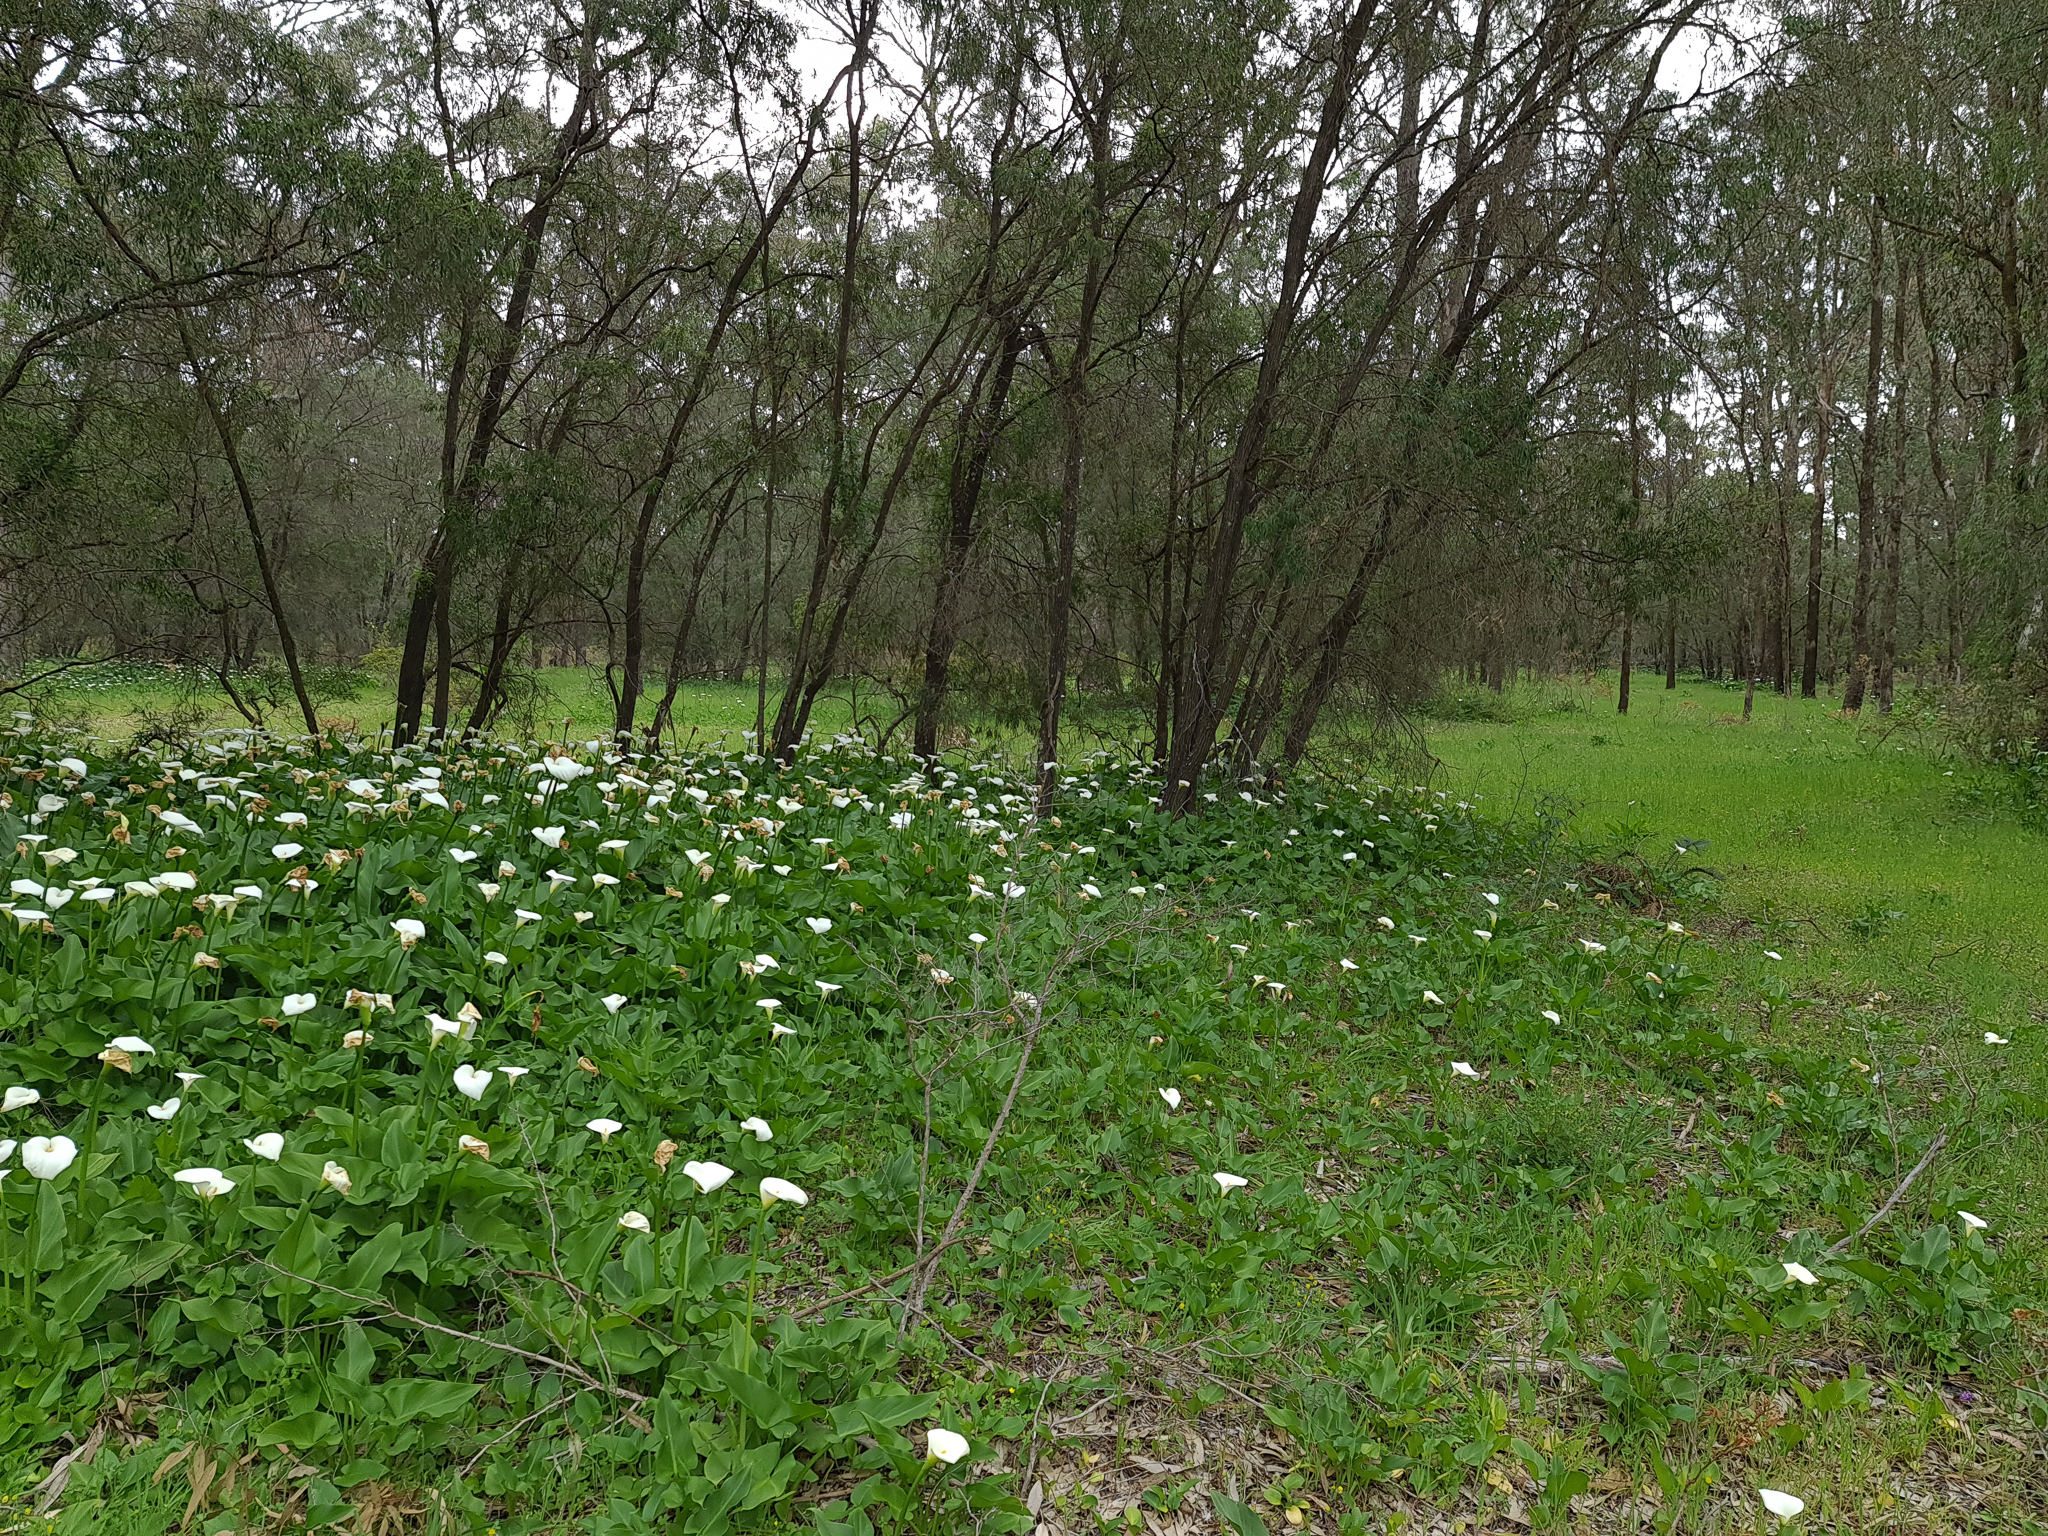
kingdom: Plantae
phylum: Tracheophyta
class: Liliopsida
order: Alismatales
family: Araceae
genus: Zantedeschia
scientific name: Zantedeschia aethiopica
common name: Altar-lily
